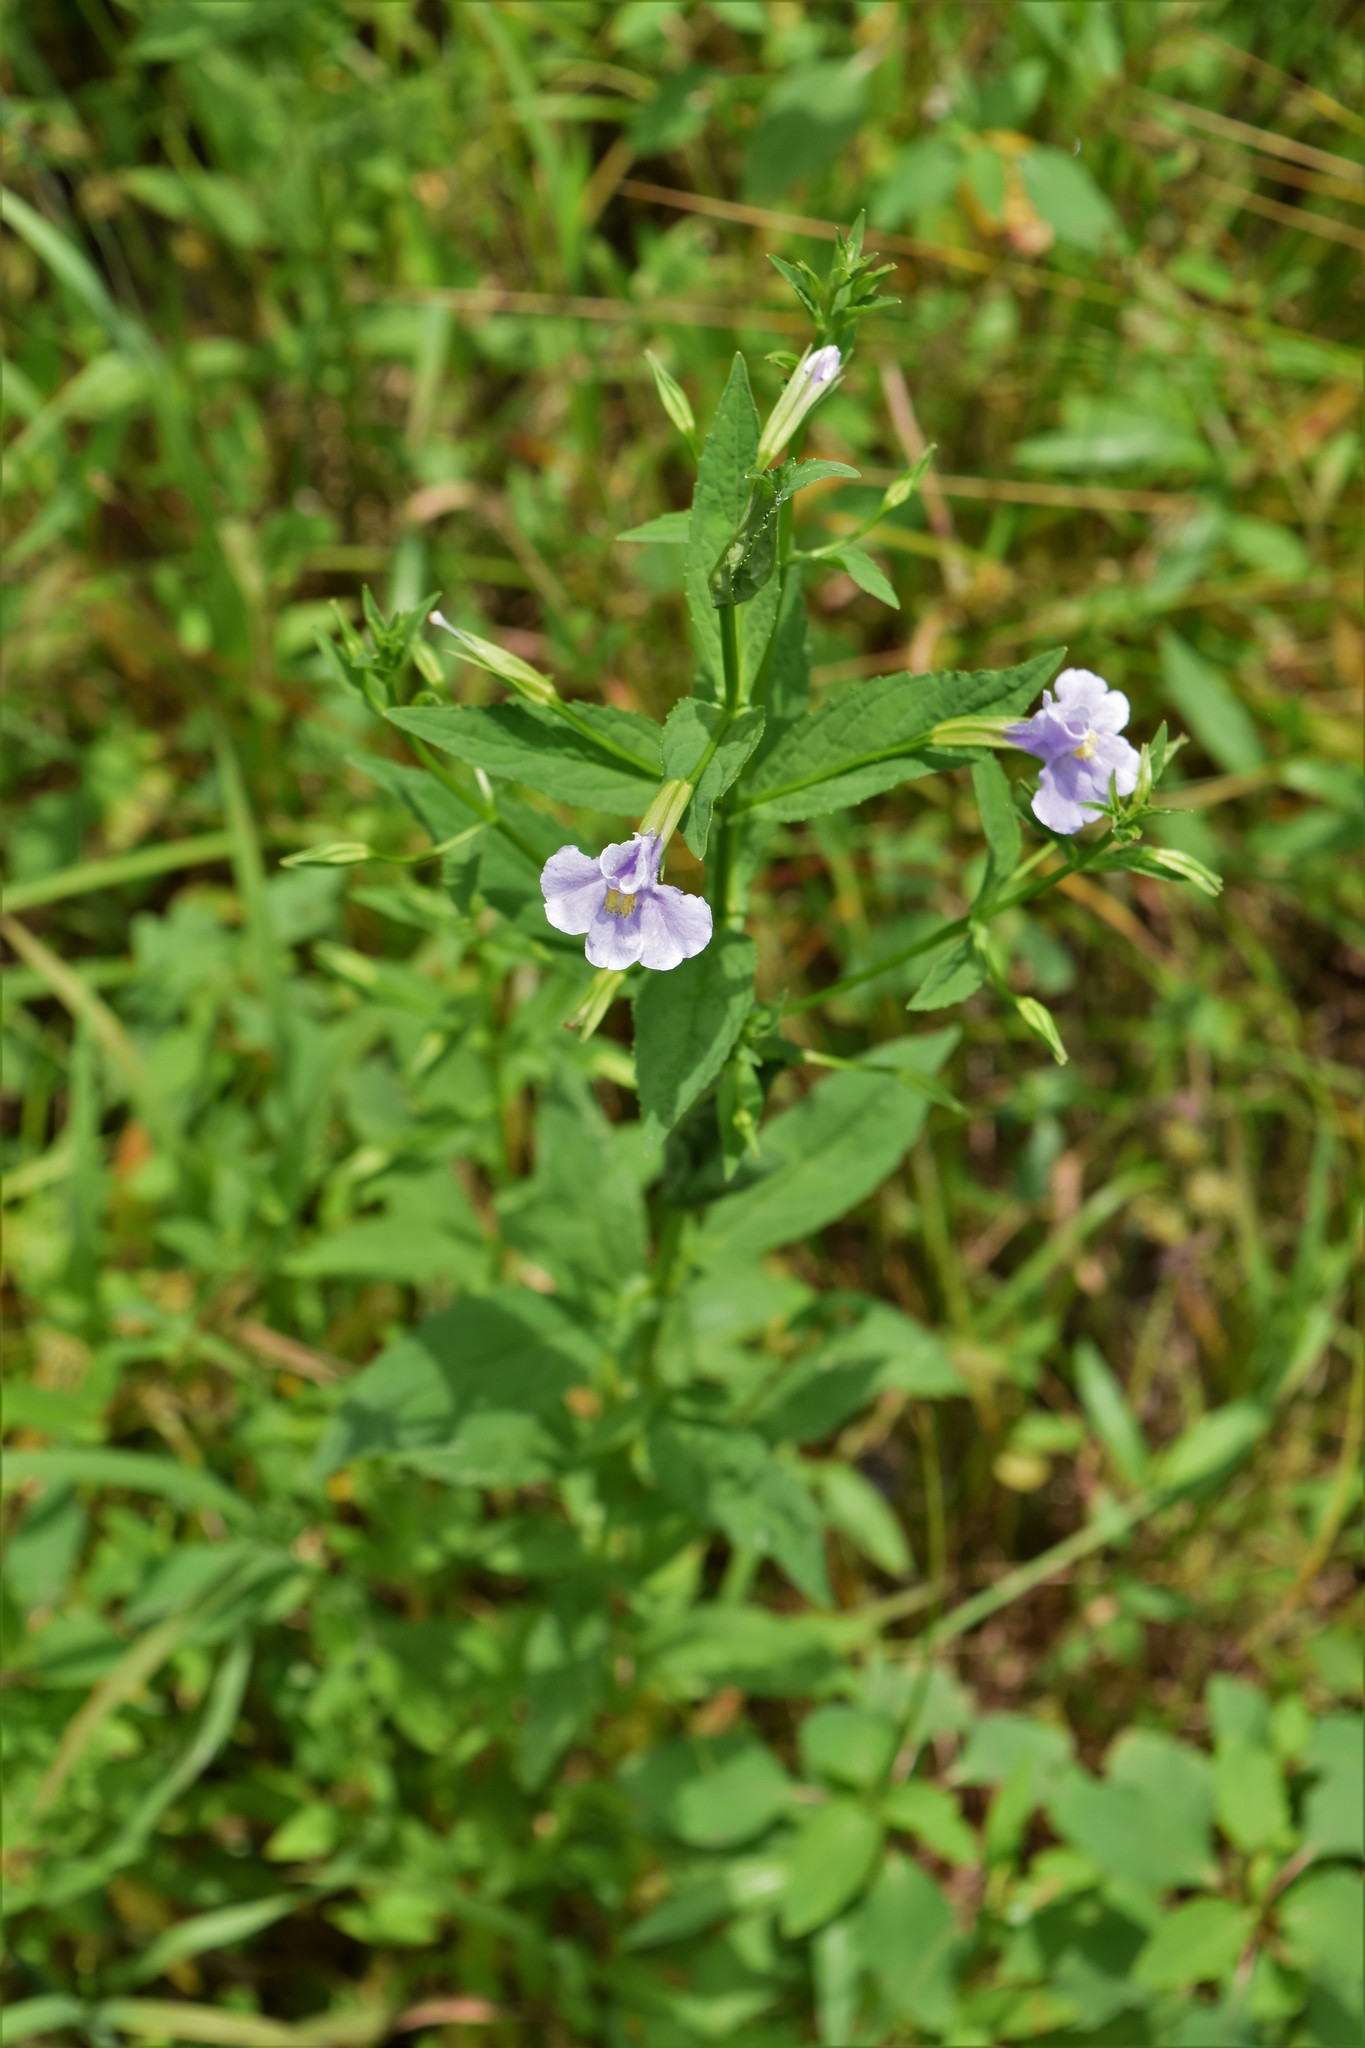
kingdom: Plantae
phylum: Tracheophyta
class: Magnoliopsida
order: Lamiales
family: Phrymaceae
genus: Mimulus
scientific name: Mimulus ringens
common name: Allegheny monkeyflower
